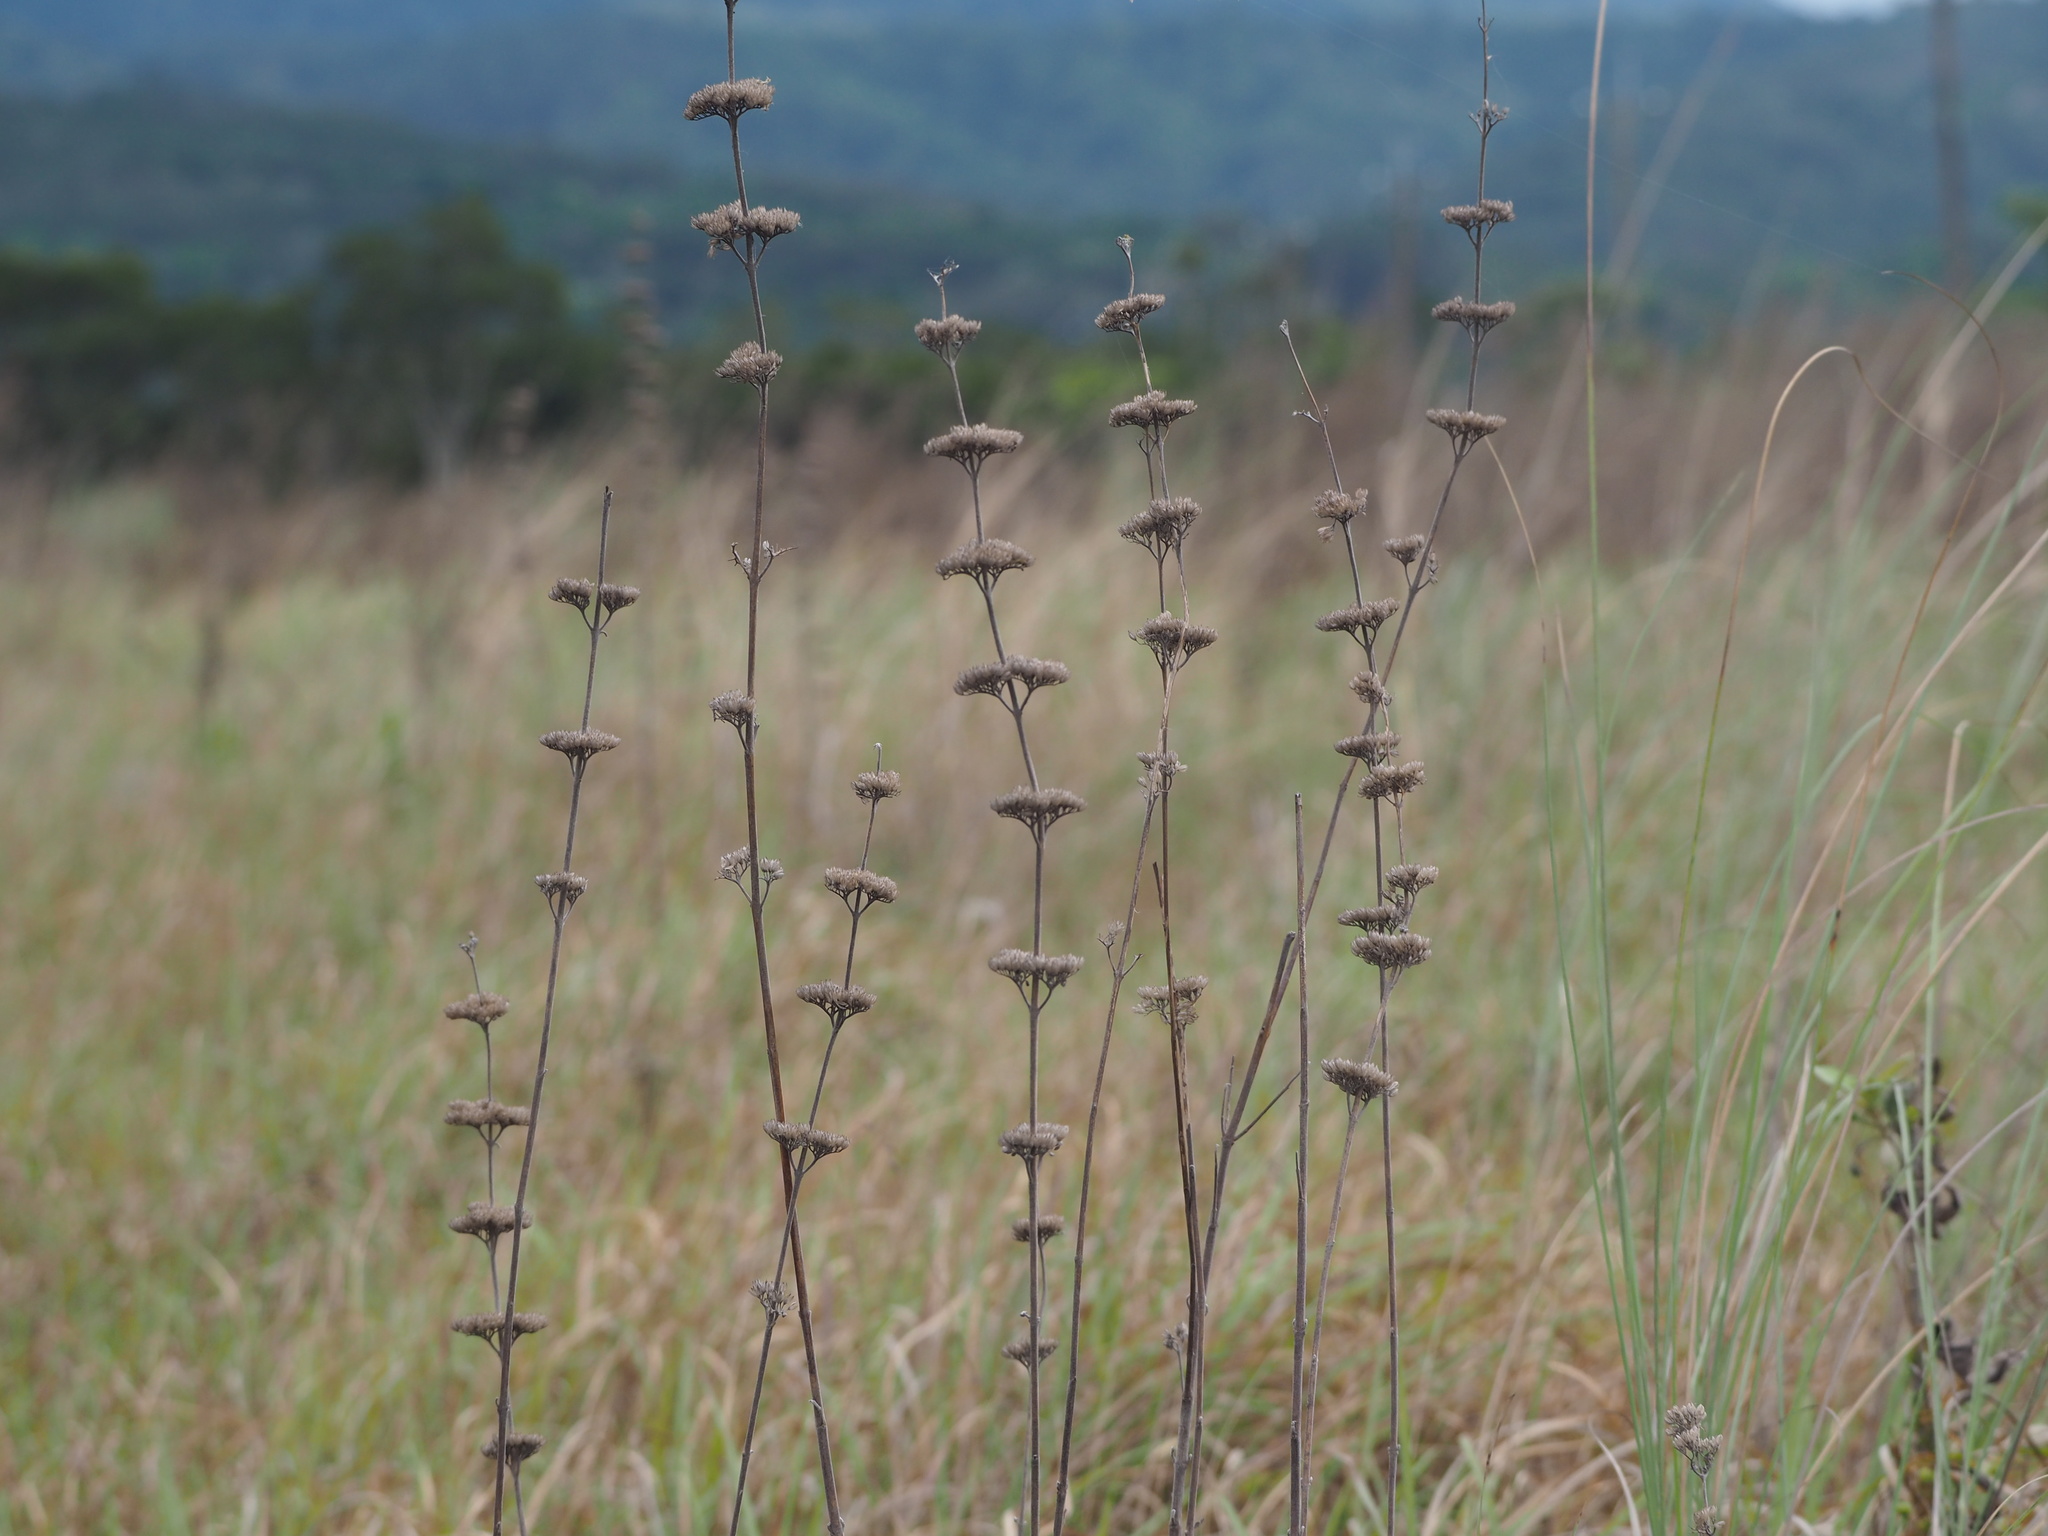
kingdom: Plantae
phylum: Tracheophyta
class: Magnoliopsida
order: Lamiales
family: Lamiaceae
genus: Caryopteris
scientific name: Caryopteris incana
